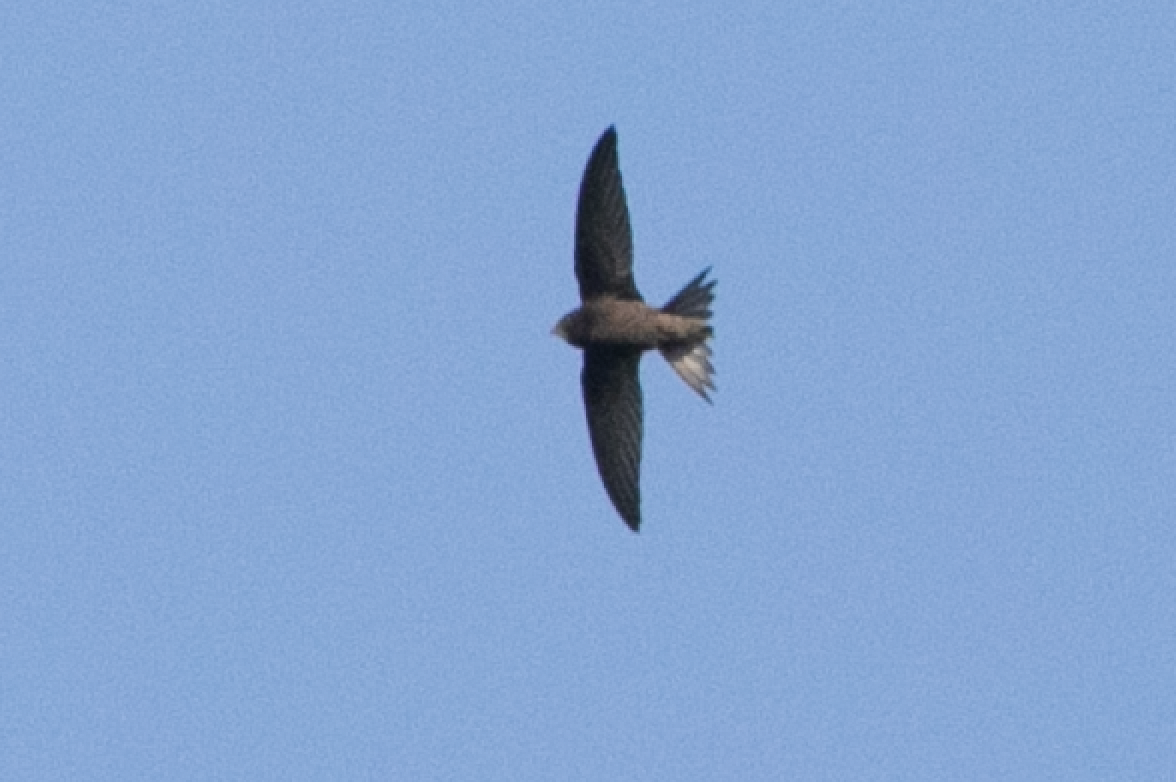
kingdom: Animalia
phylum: Chordata
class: Aves
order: Apodiformes
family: Apodidae
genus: Apus
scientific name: Apus apus
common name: Common swift
